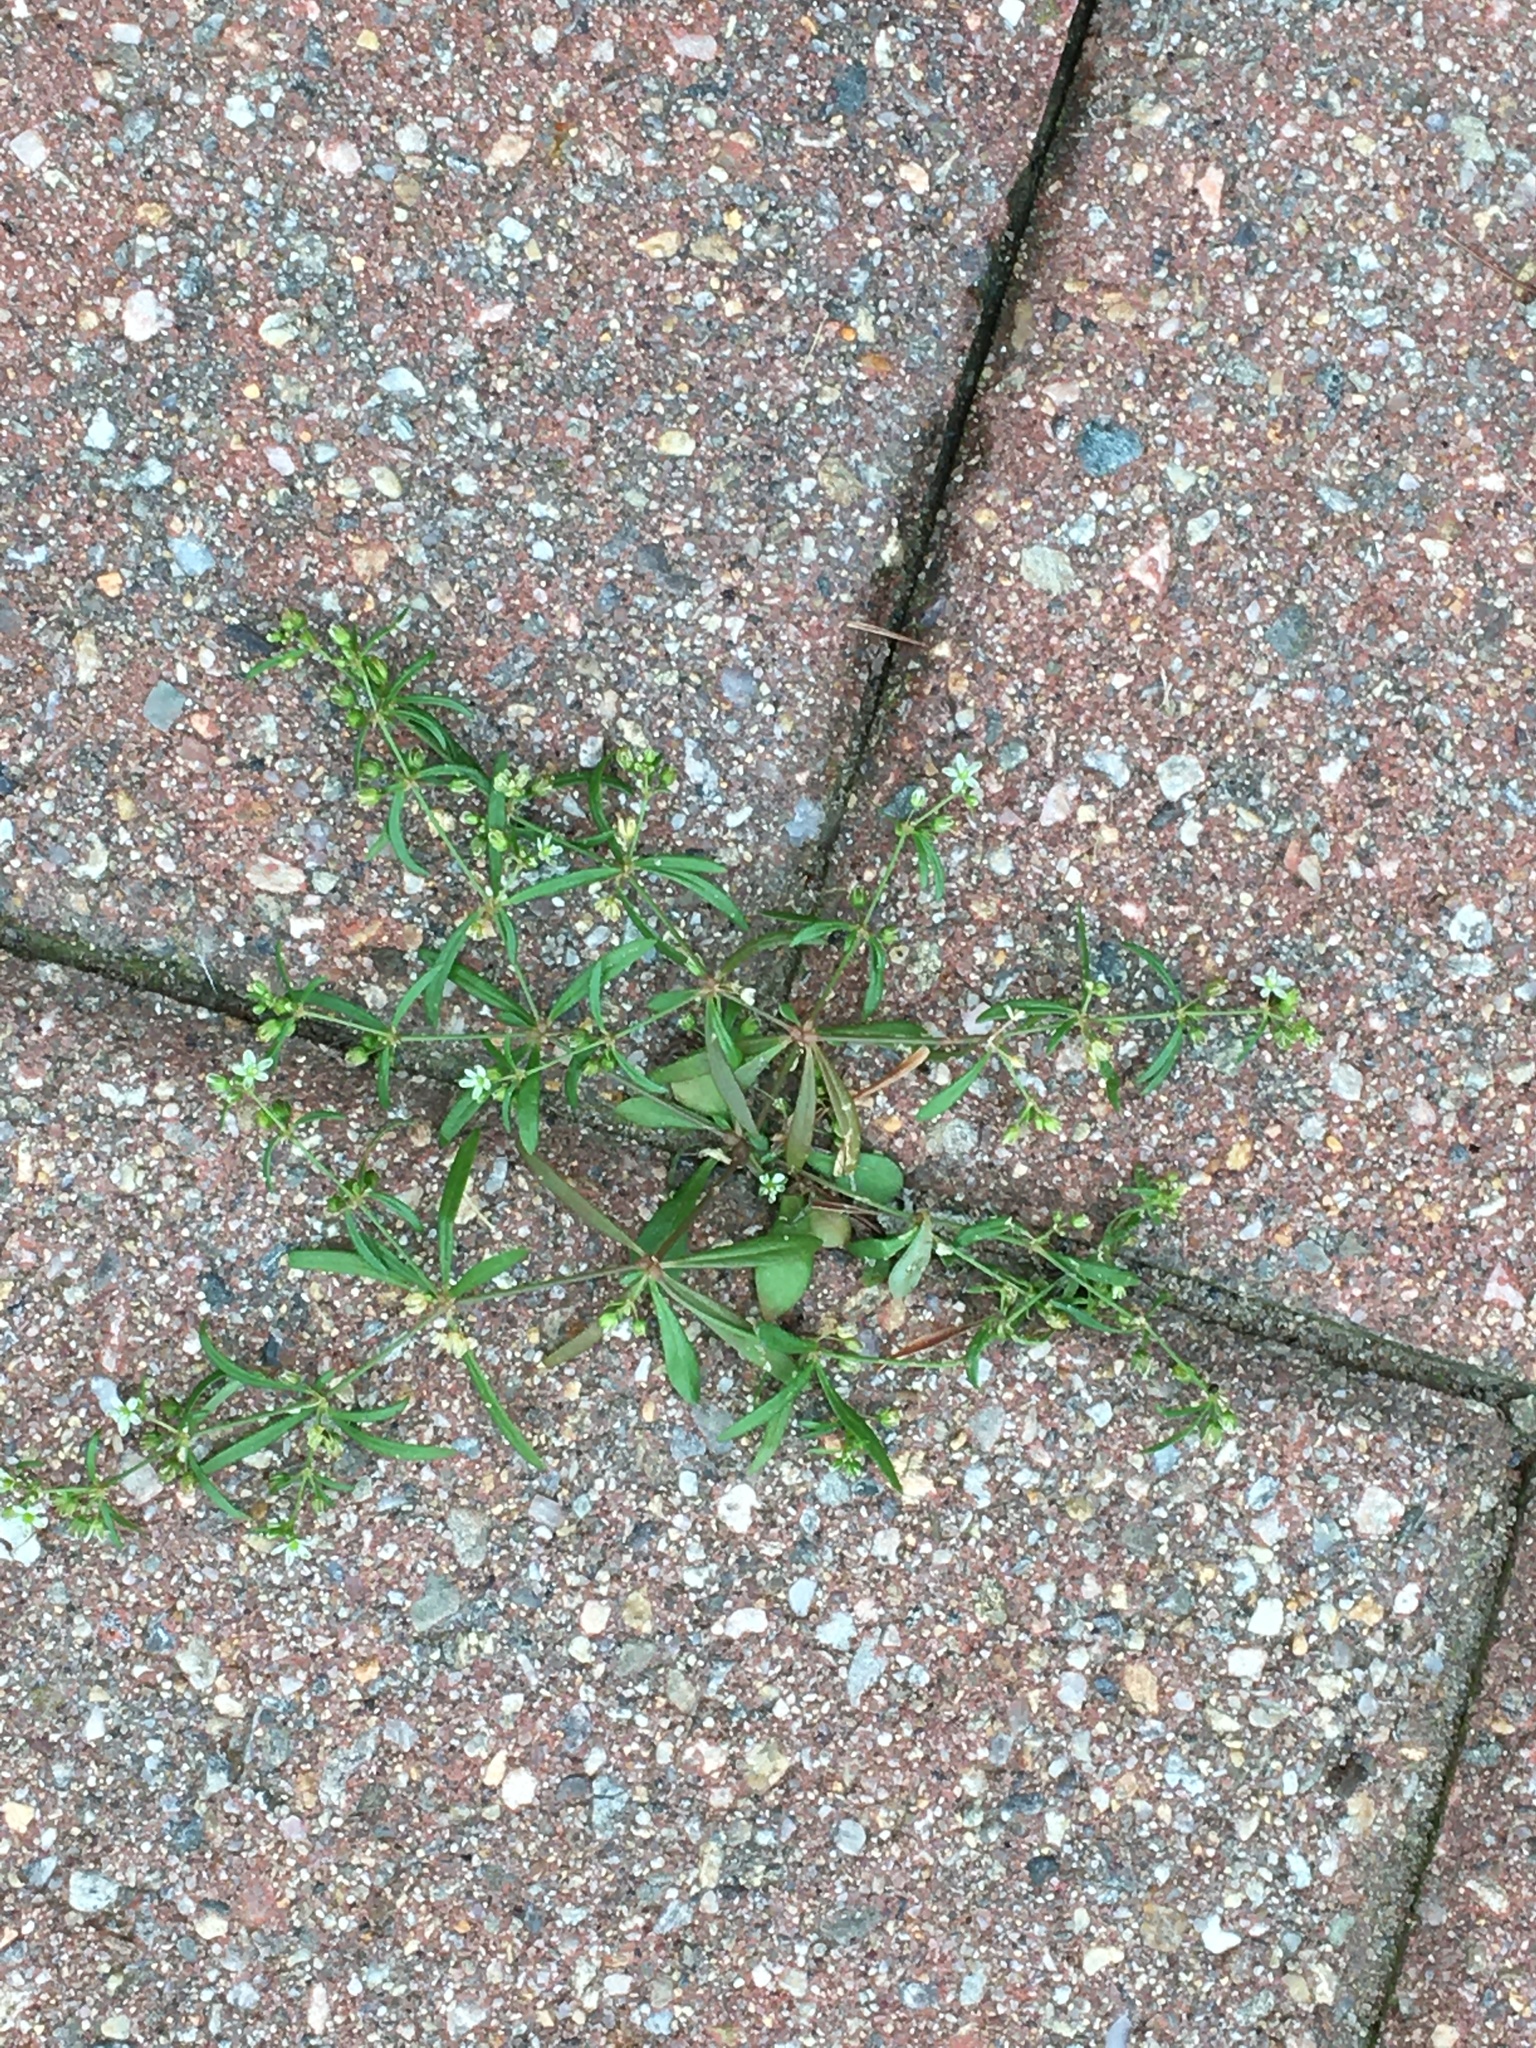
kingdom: Plantae
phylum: Tracheophyta
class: Magnoliopsida
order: Caryophyllales
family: Molluginaceae
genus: Mollugo
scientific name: Mollugo verticillata
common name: Green carpetweed
